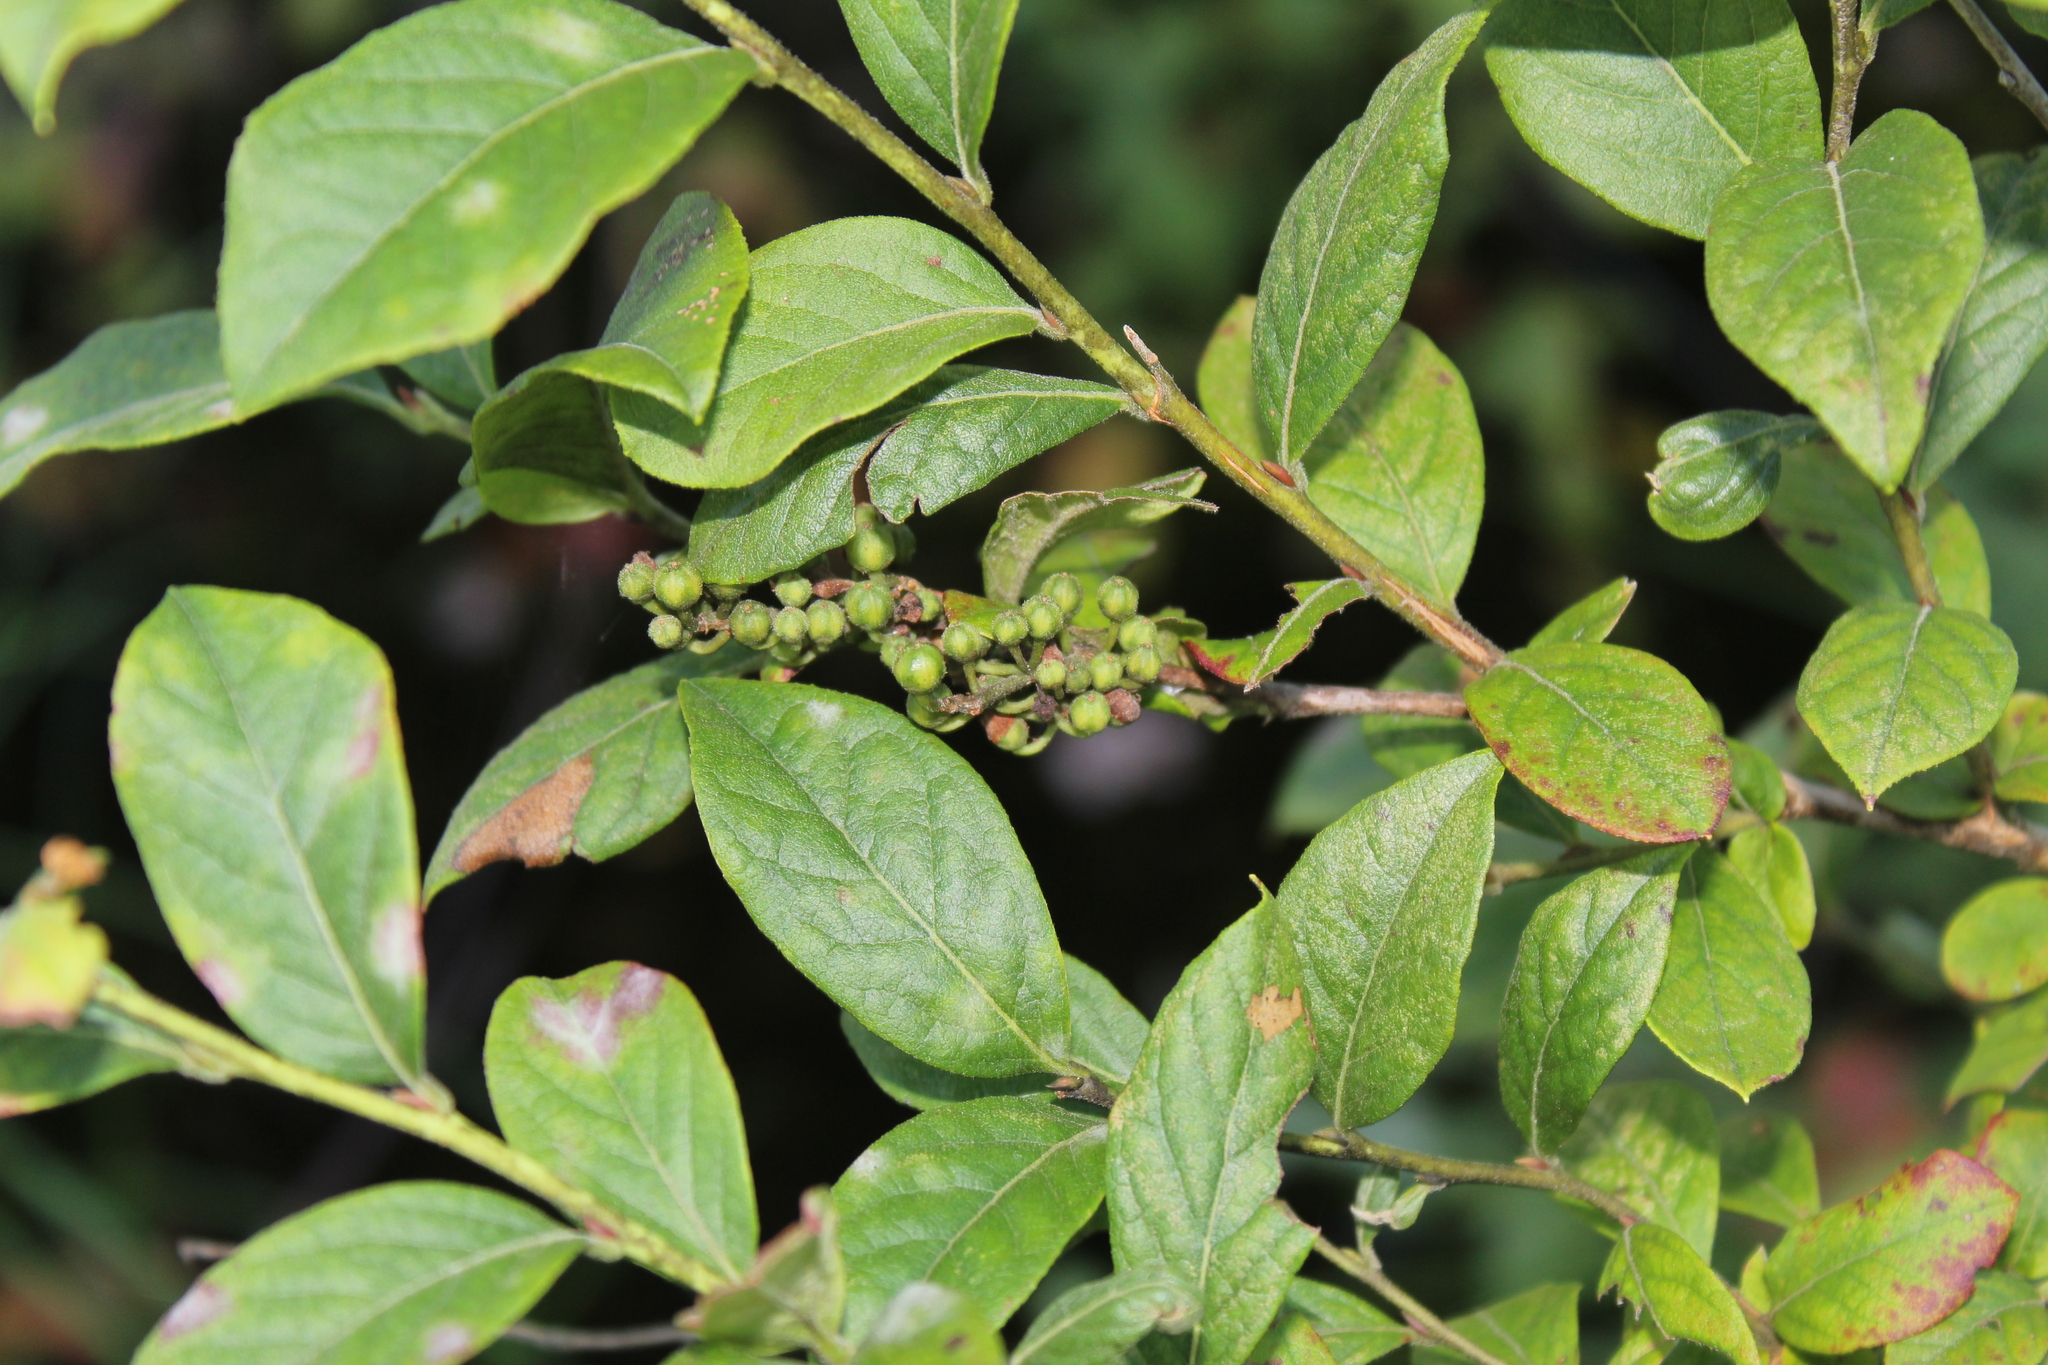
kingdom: Plantae
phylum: Tracheophyta
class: Magnoliopsida
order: Ericales
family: Ericaceae
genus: Lyonia
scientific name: Lyonia ligustrina
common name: Maleberry
